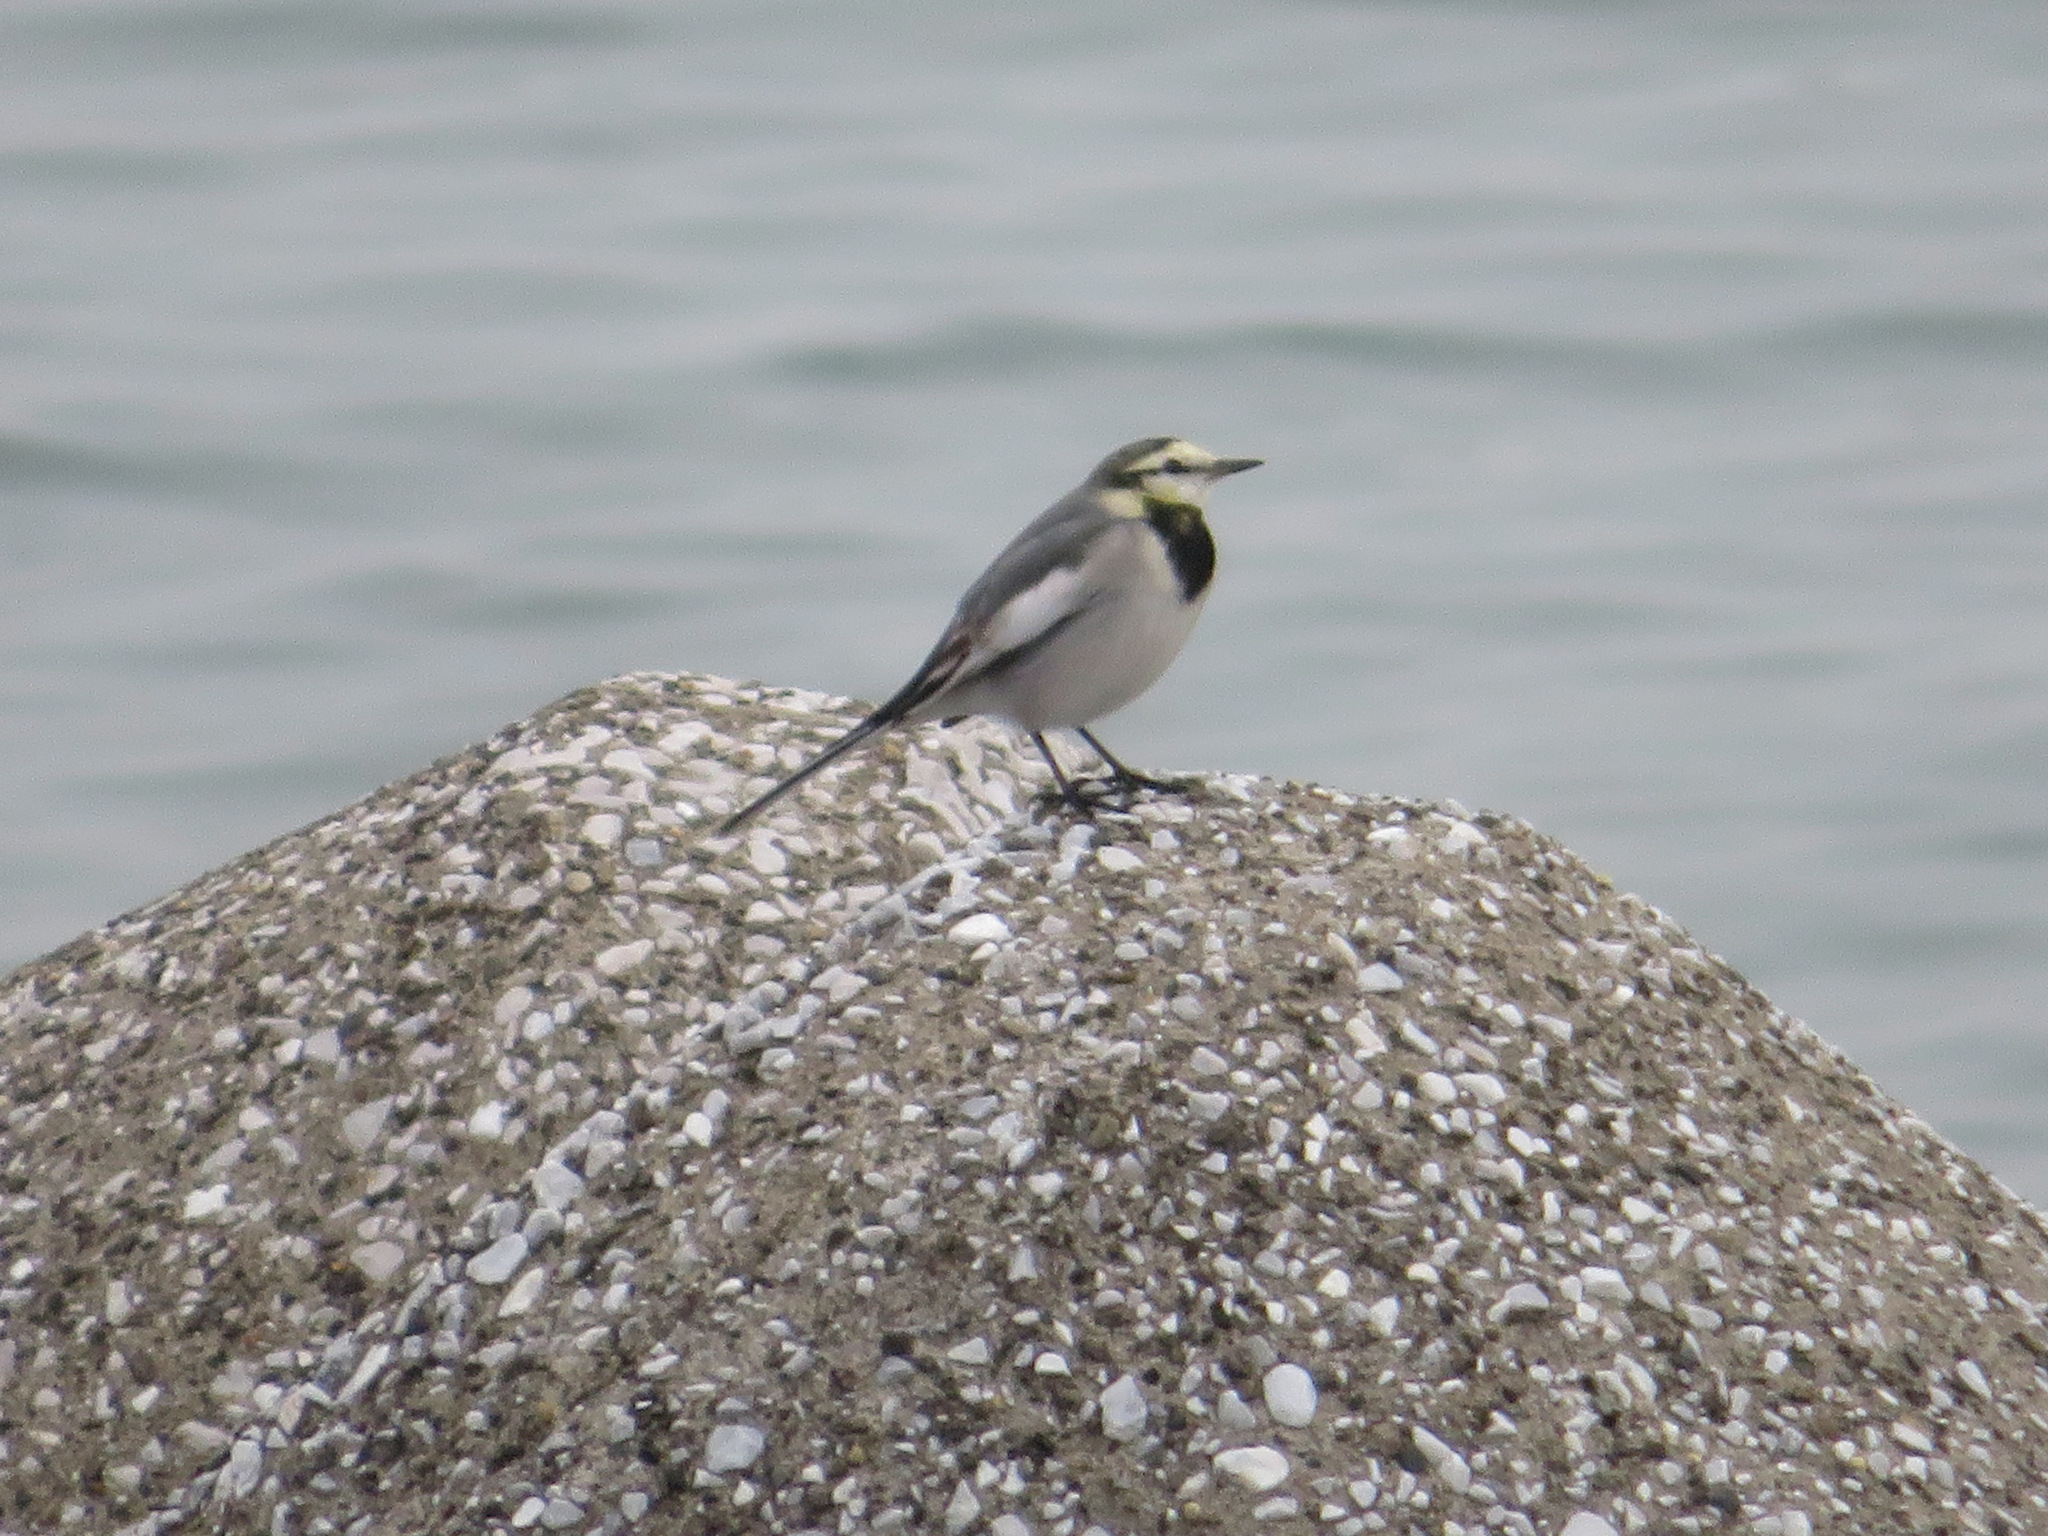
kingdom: Animalia
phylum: Chordata
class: Aves
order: Passeriformes
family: Motacillidae
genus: Motacilla
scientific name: Motacilla alba
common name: White wagtail
